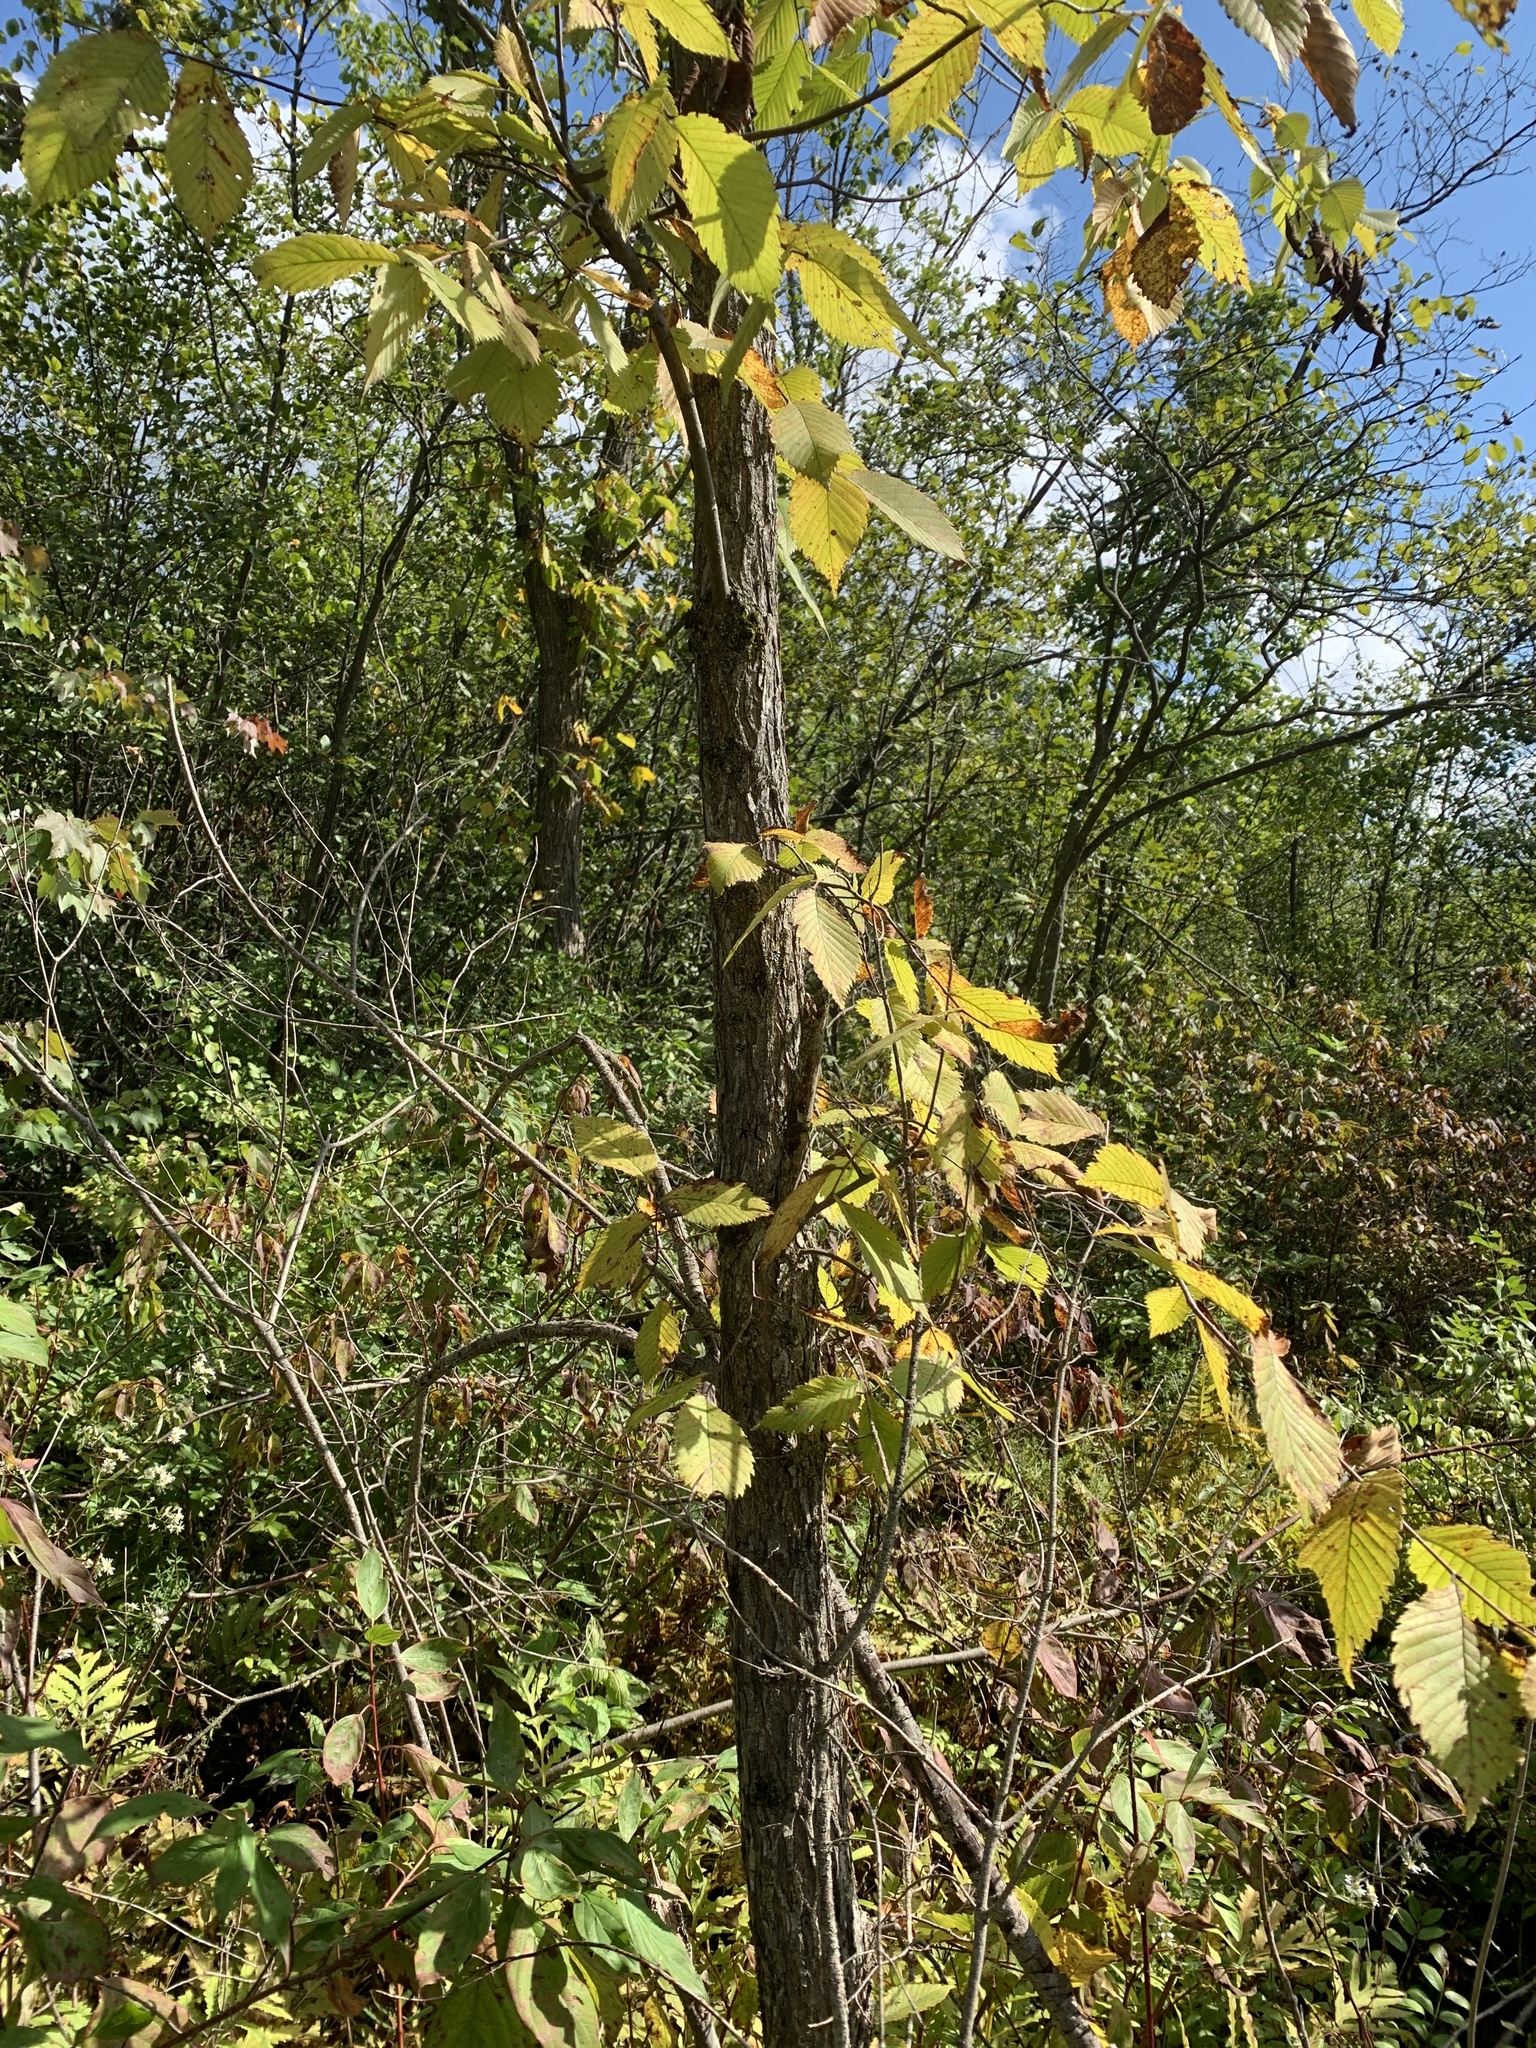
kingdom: Plantae
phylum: Tracheophyta
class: Magnoliopsida
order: Rosales
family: Ulmaceae
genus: Ulmus
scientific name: Ulmus americana
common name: American elm
